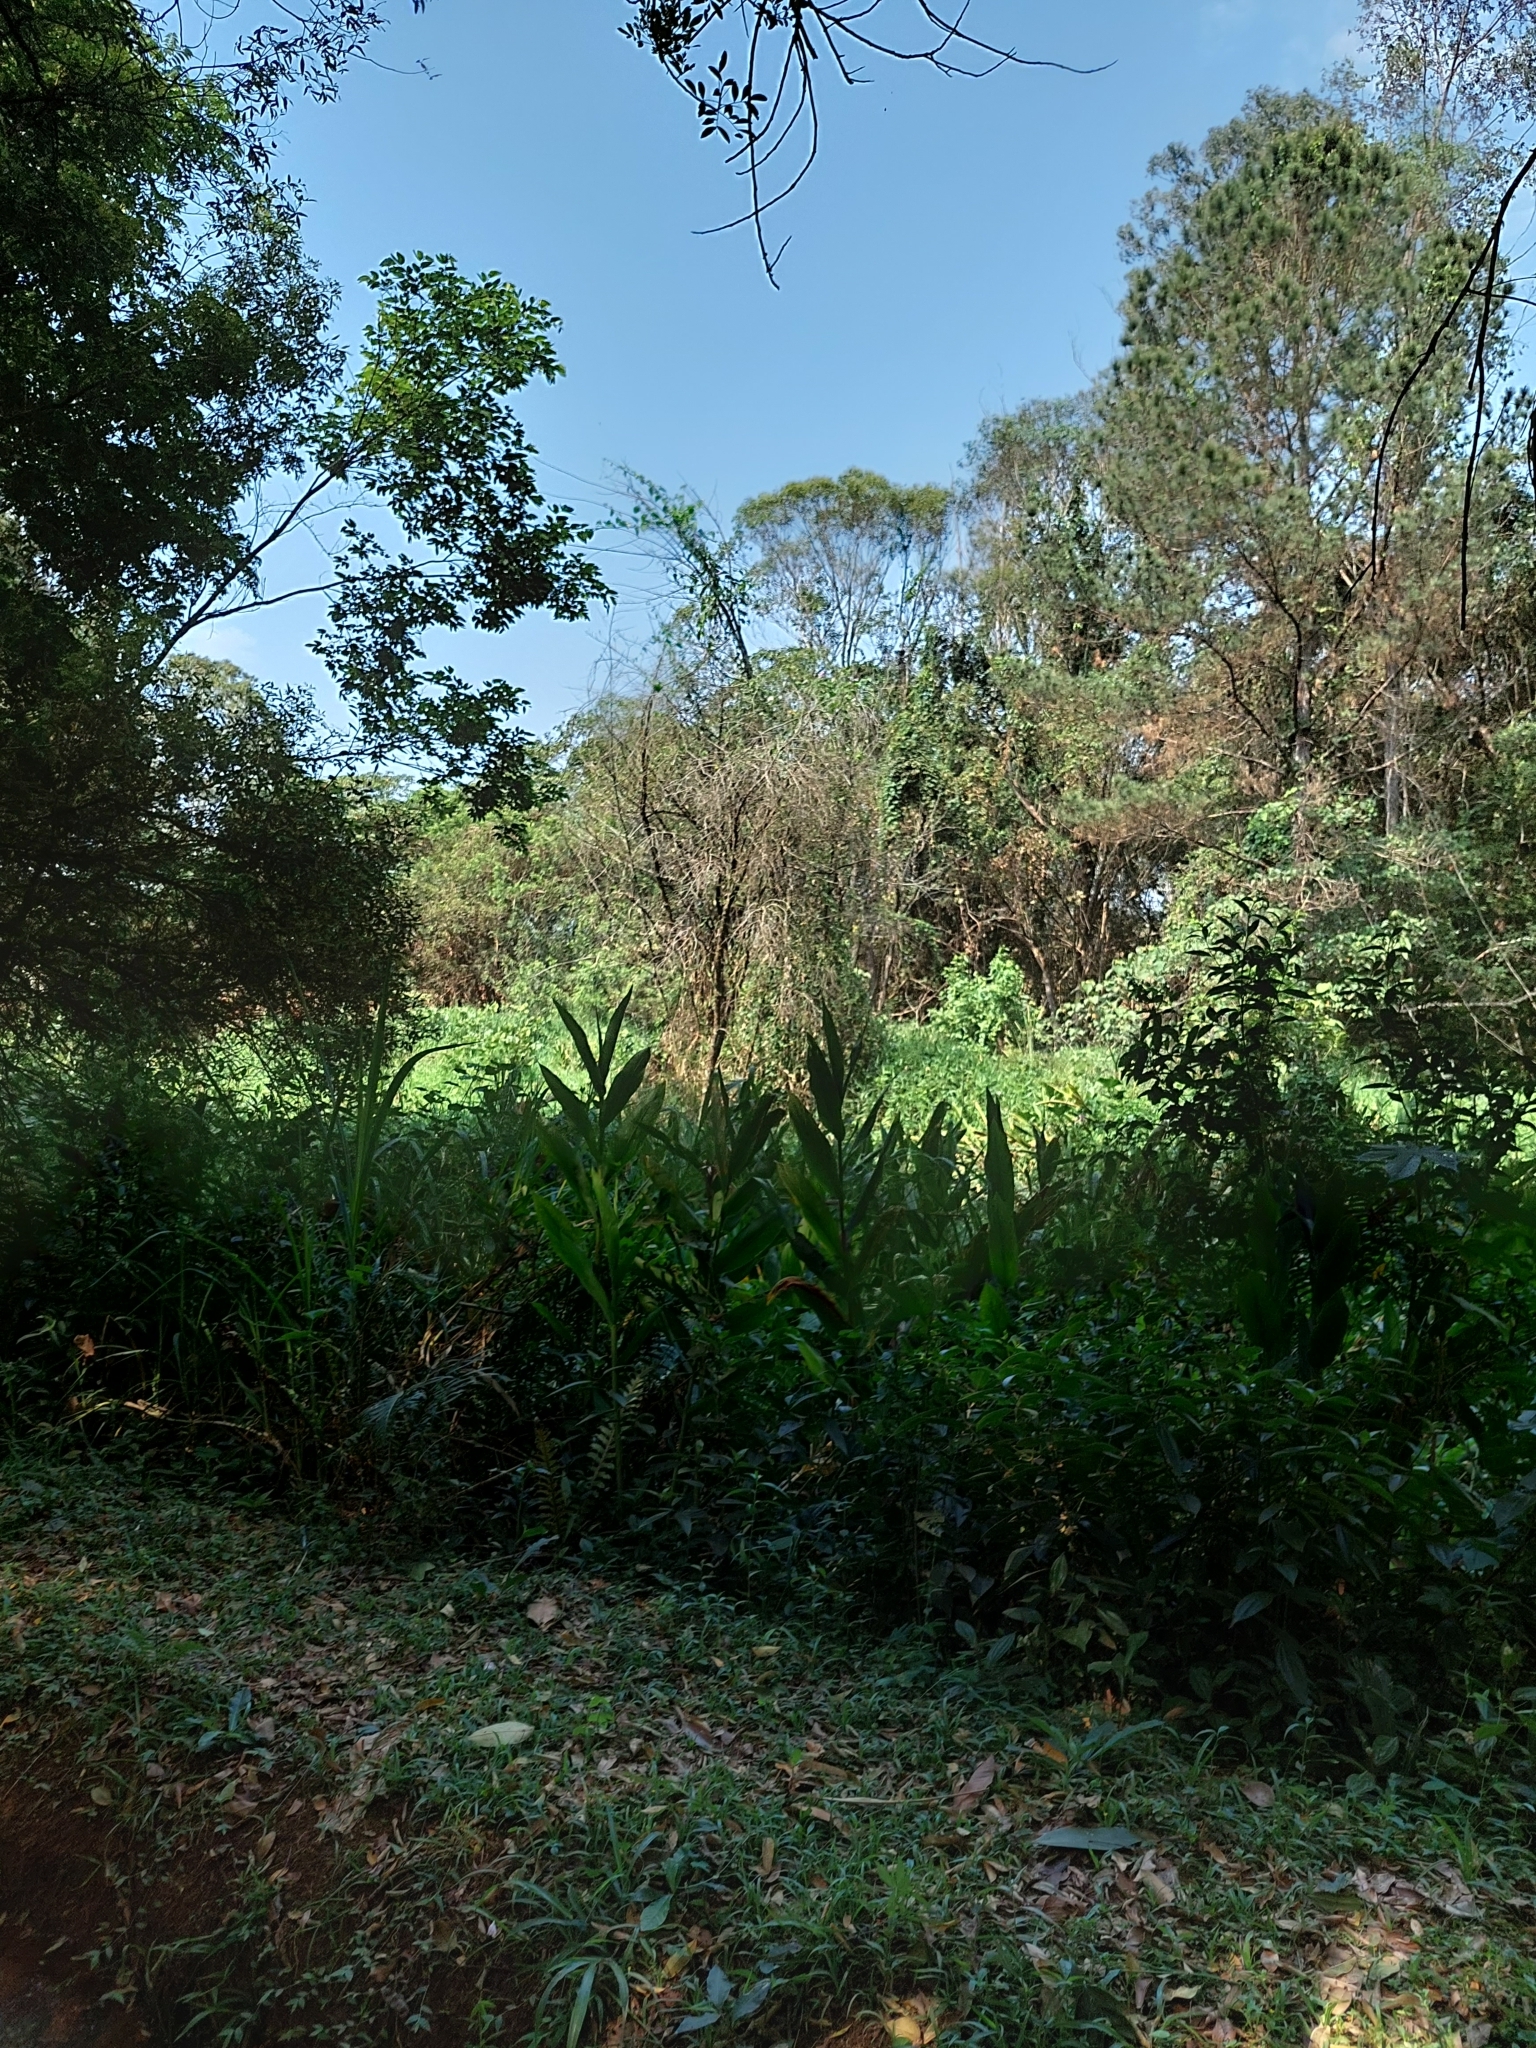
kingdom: Plantae
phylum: Tracheophyta
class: Liliopsida
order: Zingiberales
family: Zingiberaceae
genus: Hedychium
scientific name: Hedychium coronarium
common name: White garland-lily
